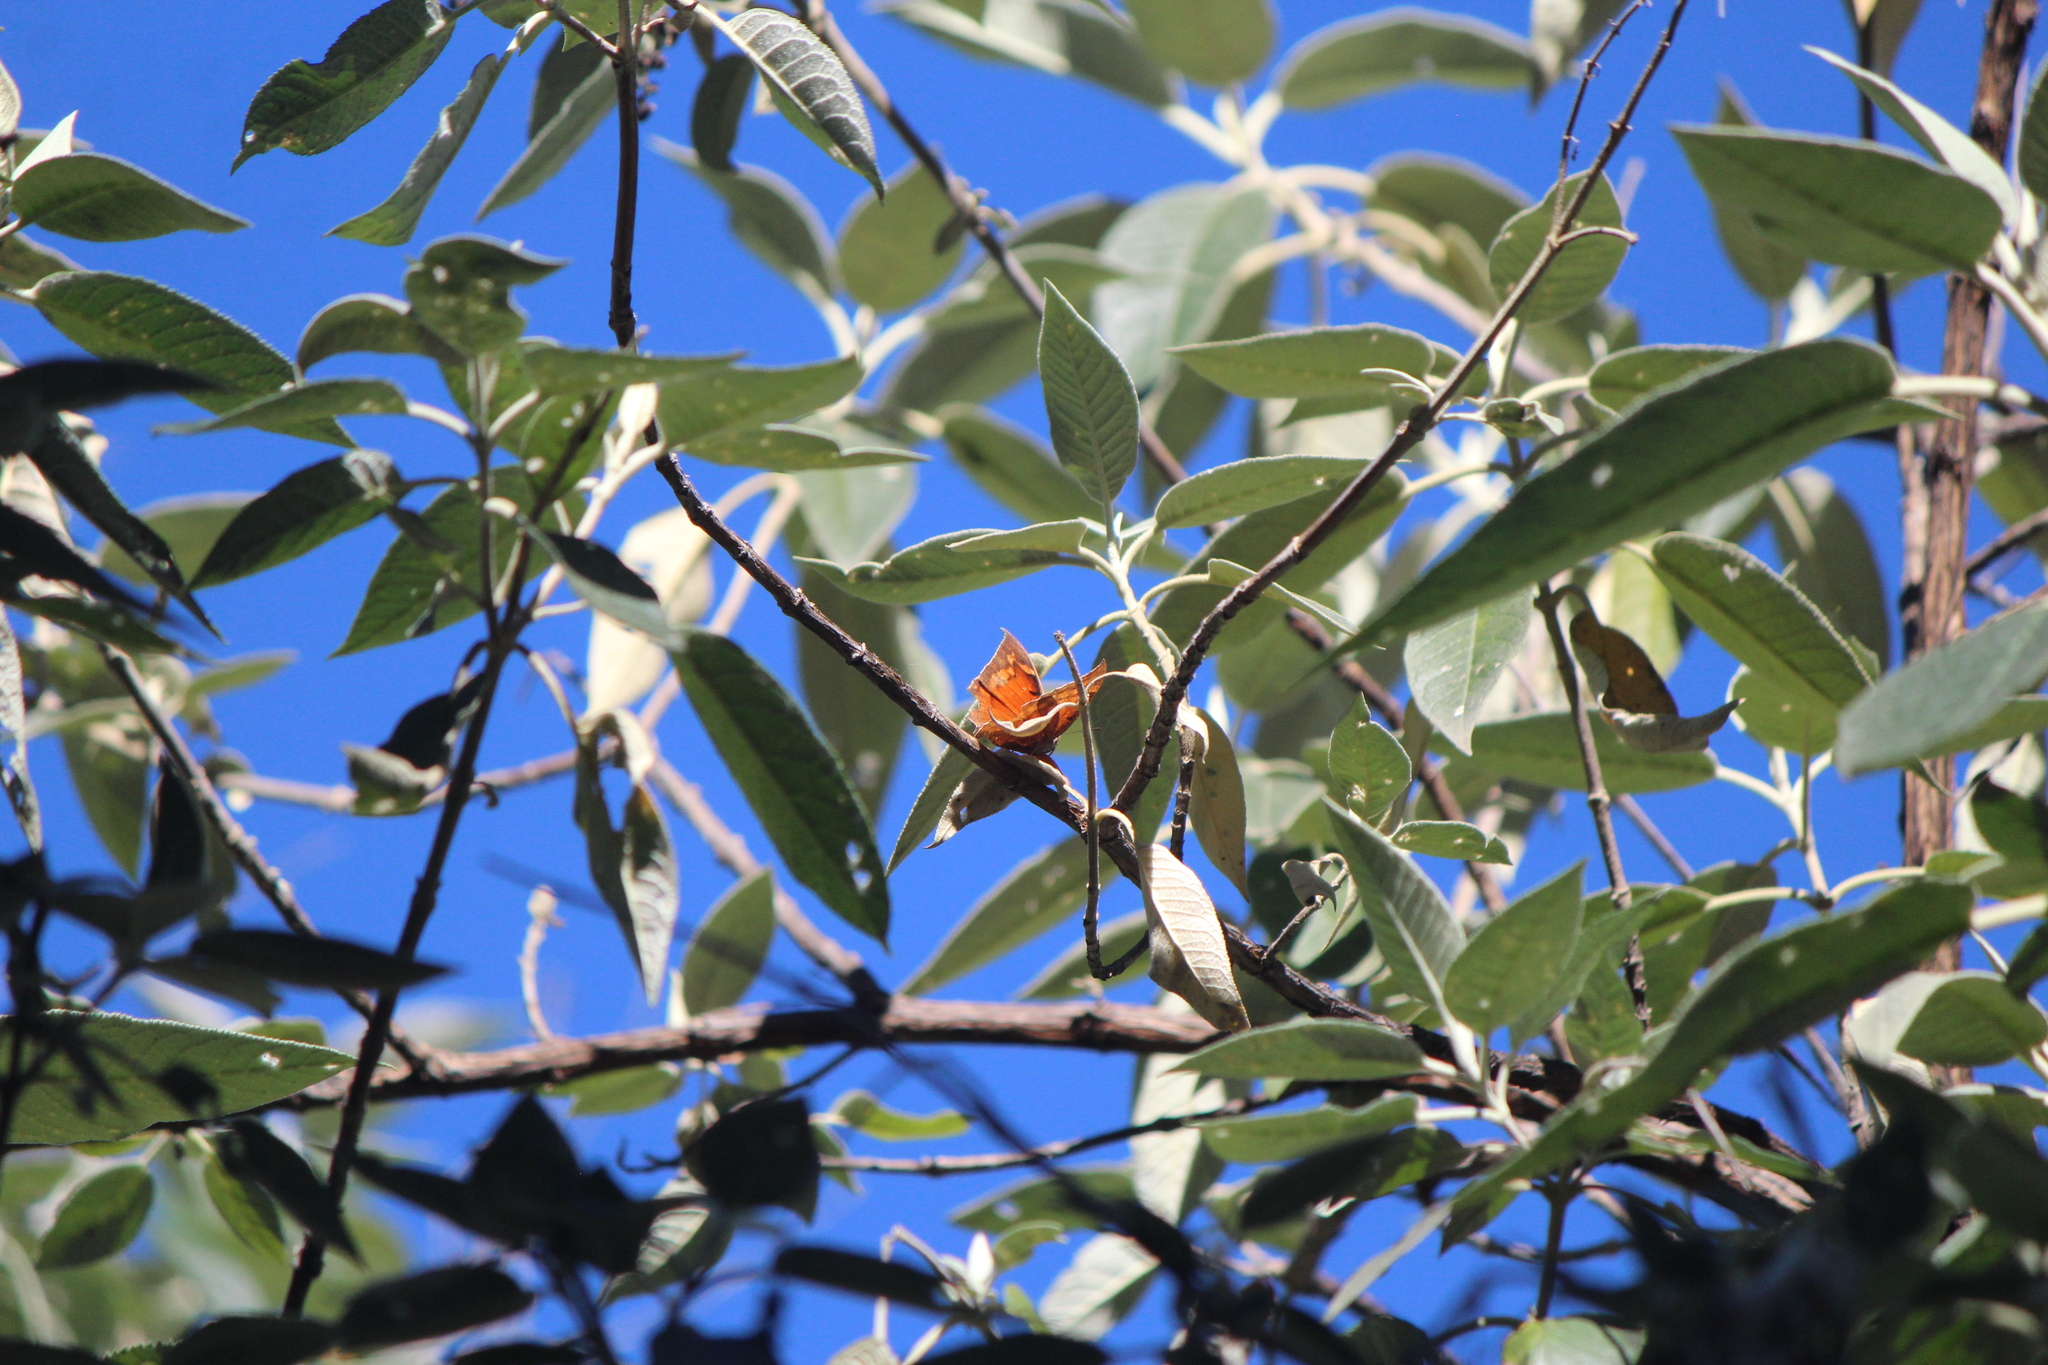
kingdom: Animalia
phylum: Arthropoda
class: Insecta
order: Lepidoptera
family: Nymphalidae
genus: Anaea
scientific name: Anaea aidea
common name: Tropical leafwing
